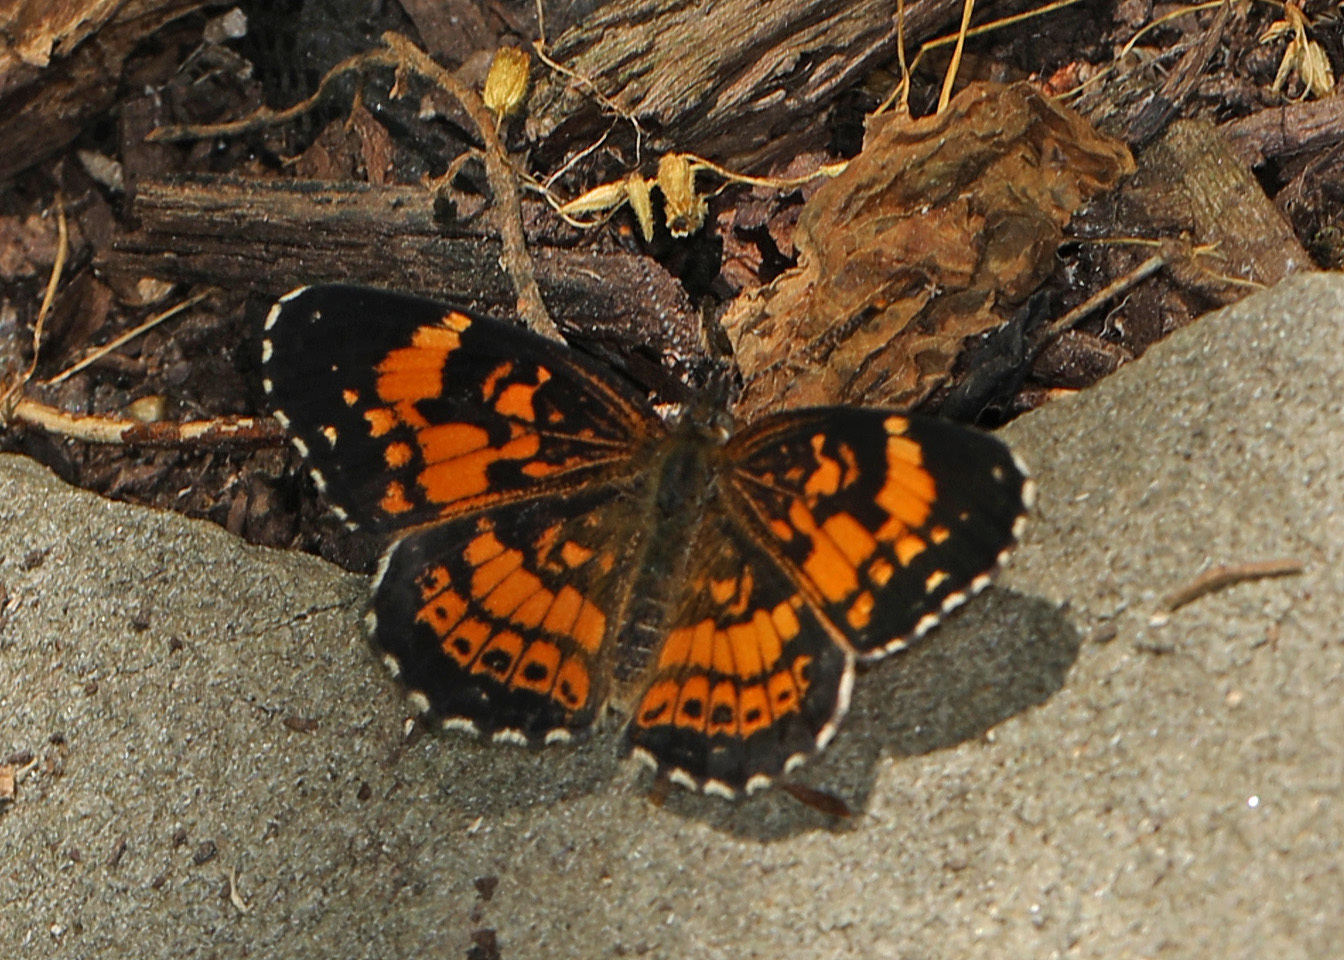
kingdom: Animalia
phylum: Arthropoda
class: Insecta
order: Lepidoptera
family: Nymphalidae
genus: Chlosyne
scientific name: Chlosyne nycteis
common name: Silvery checkerspot
